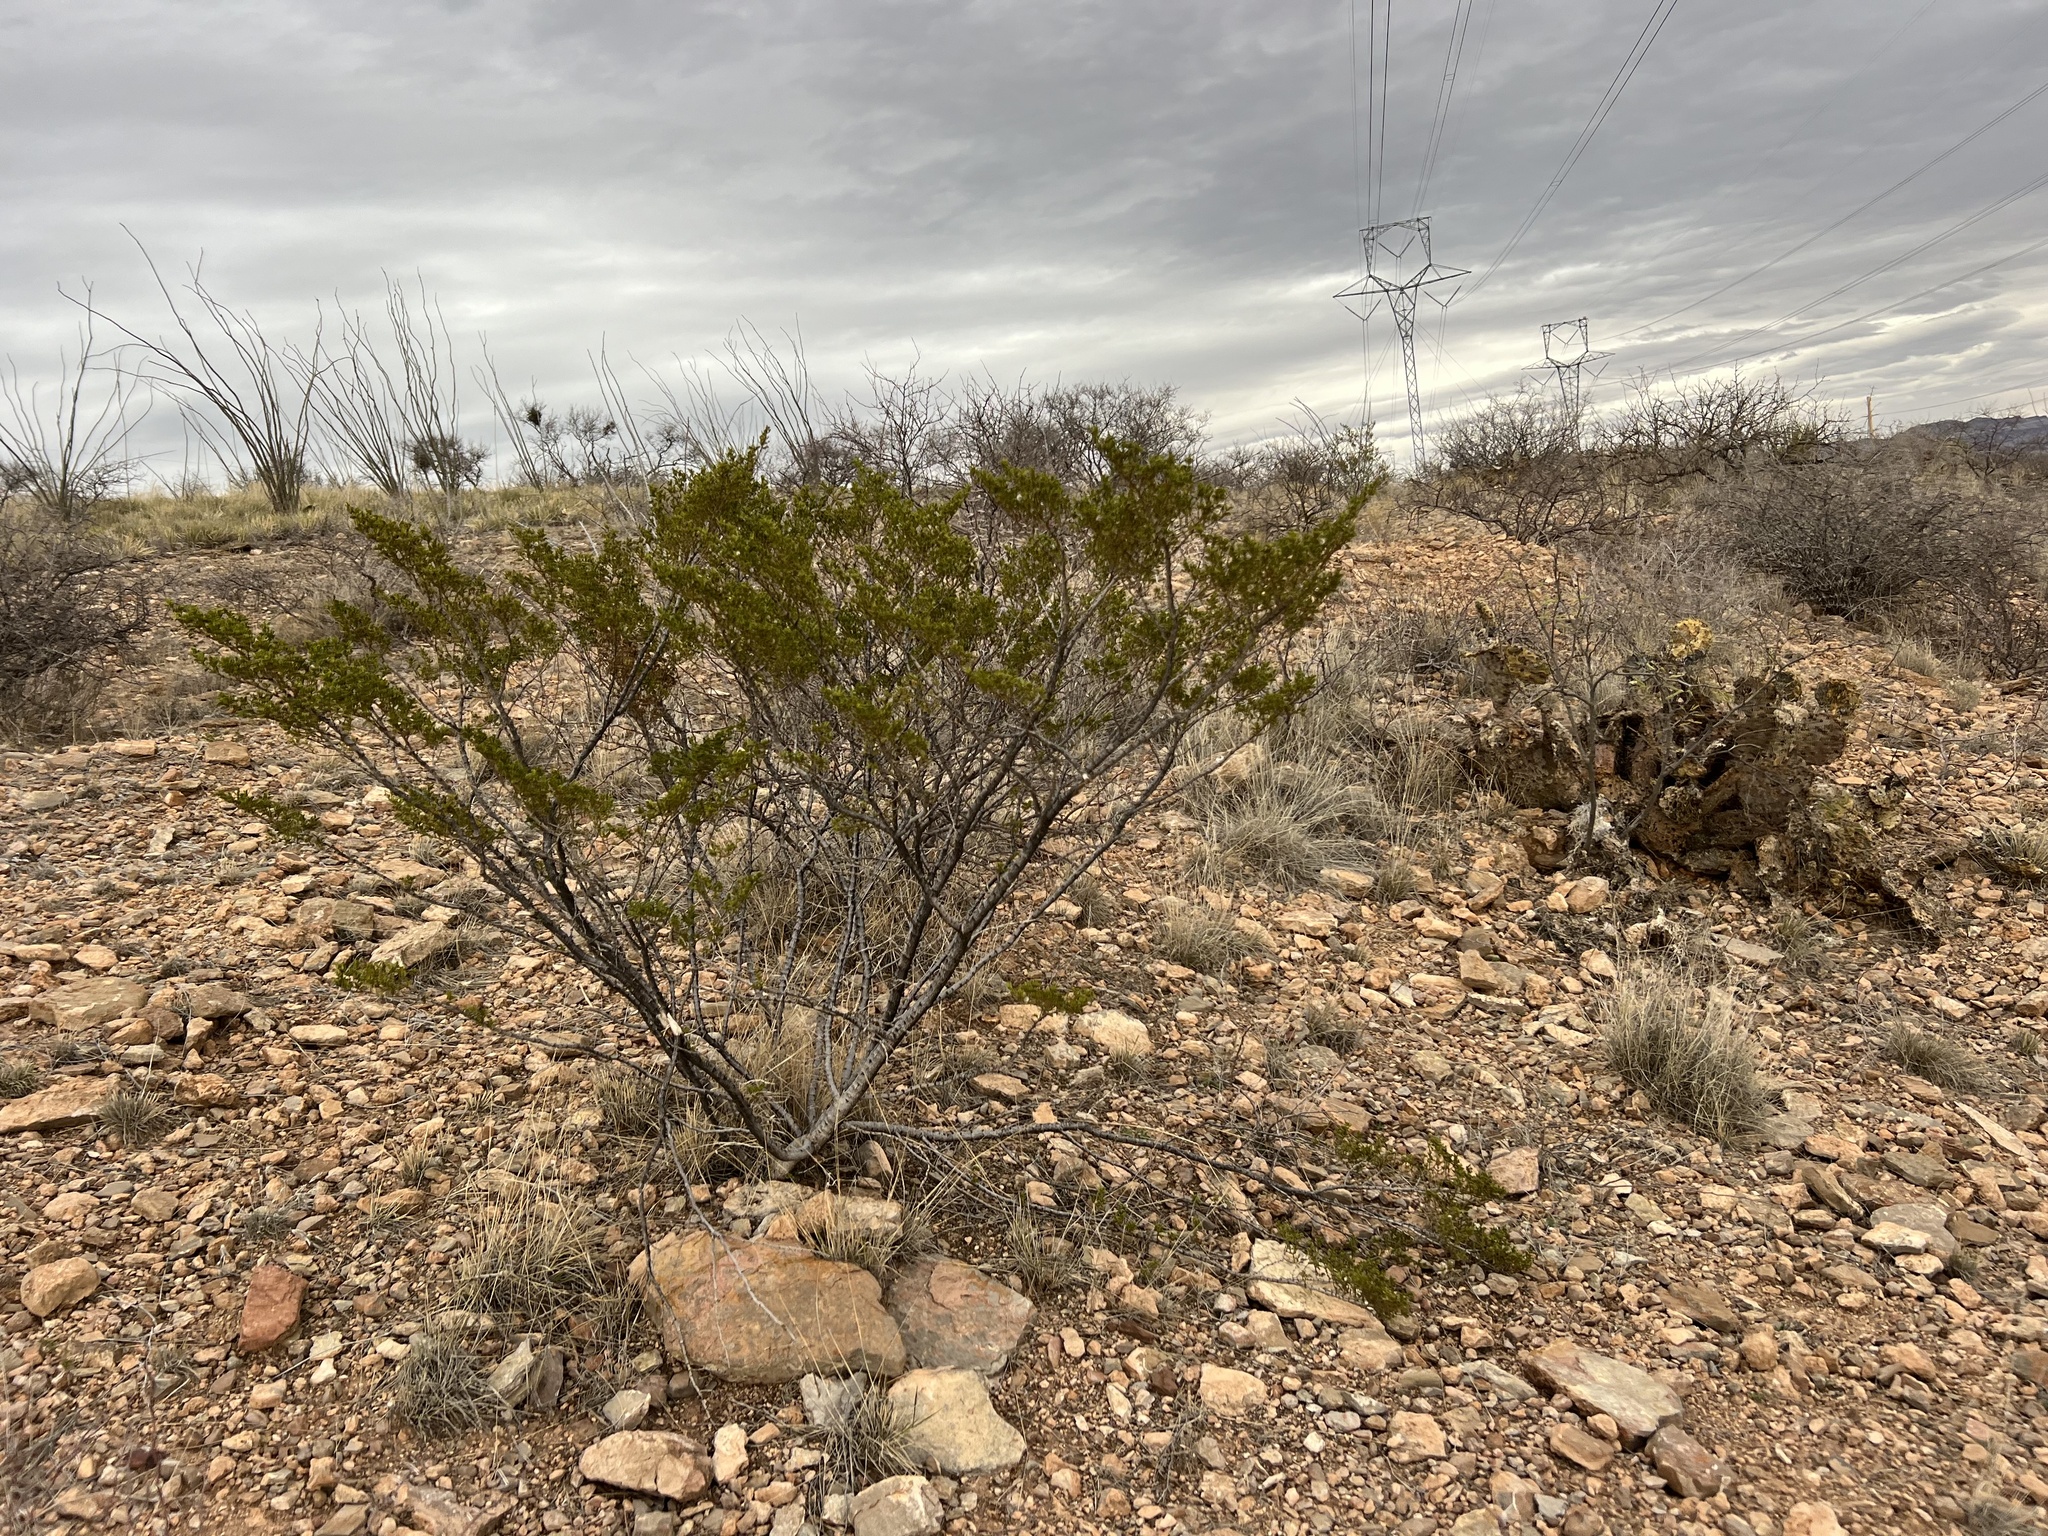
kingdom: Plantae
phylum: Tracheophyta
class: Magnoliopsida
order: Zygophyllales
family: Zygophyllaceae
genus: Larrea
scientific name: Larrea tridentata
